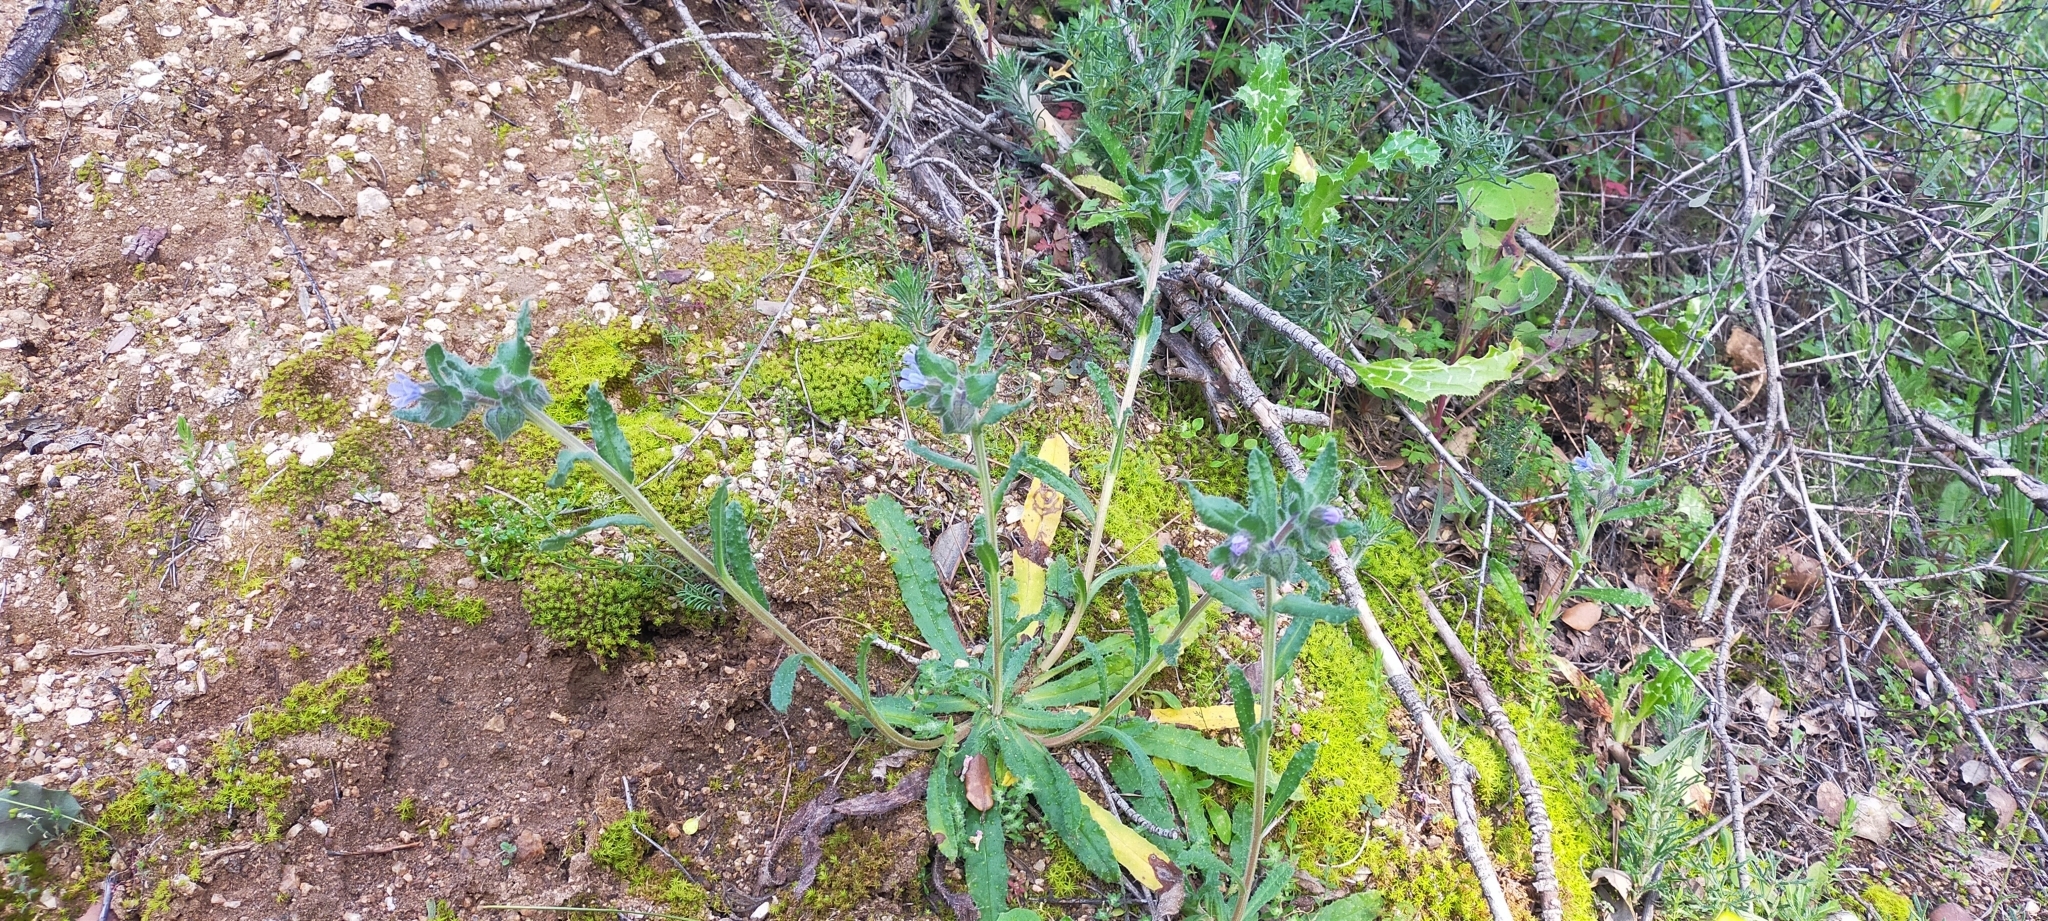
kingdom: Plantae
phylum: Tracheophyta
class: Magnoliopsida
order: Boraginales
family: Boraginaceae
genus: Nonea
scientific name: Nonea micrantha
